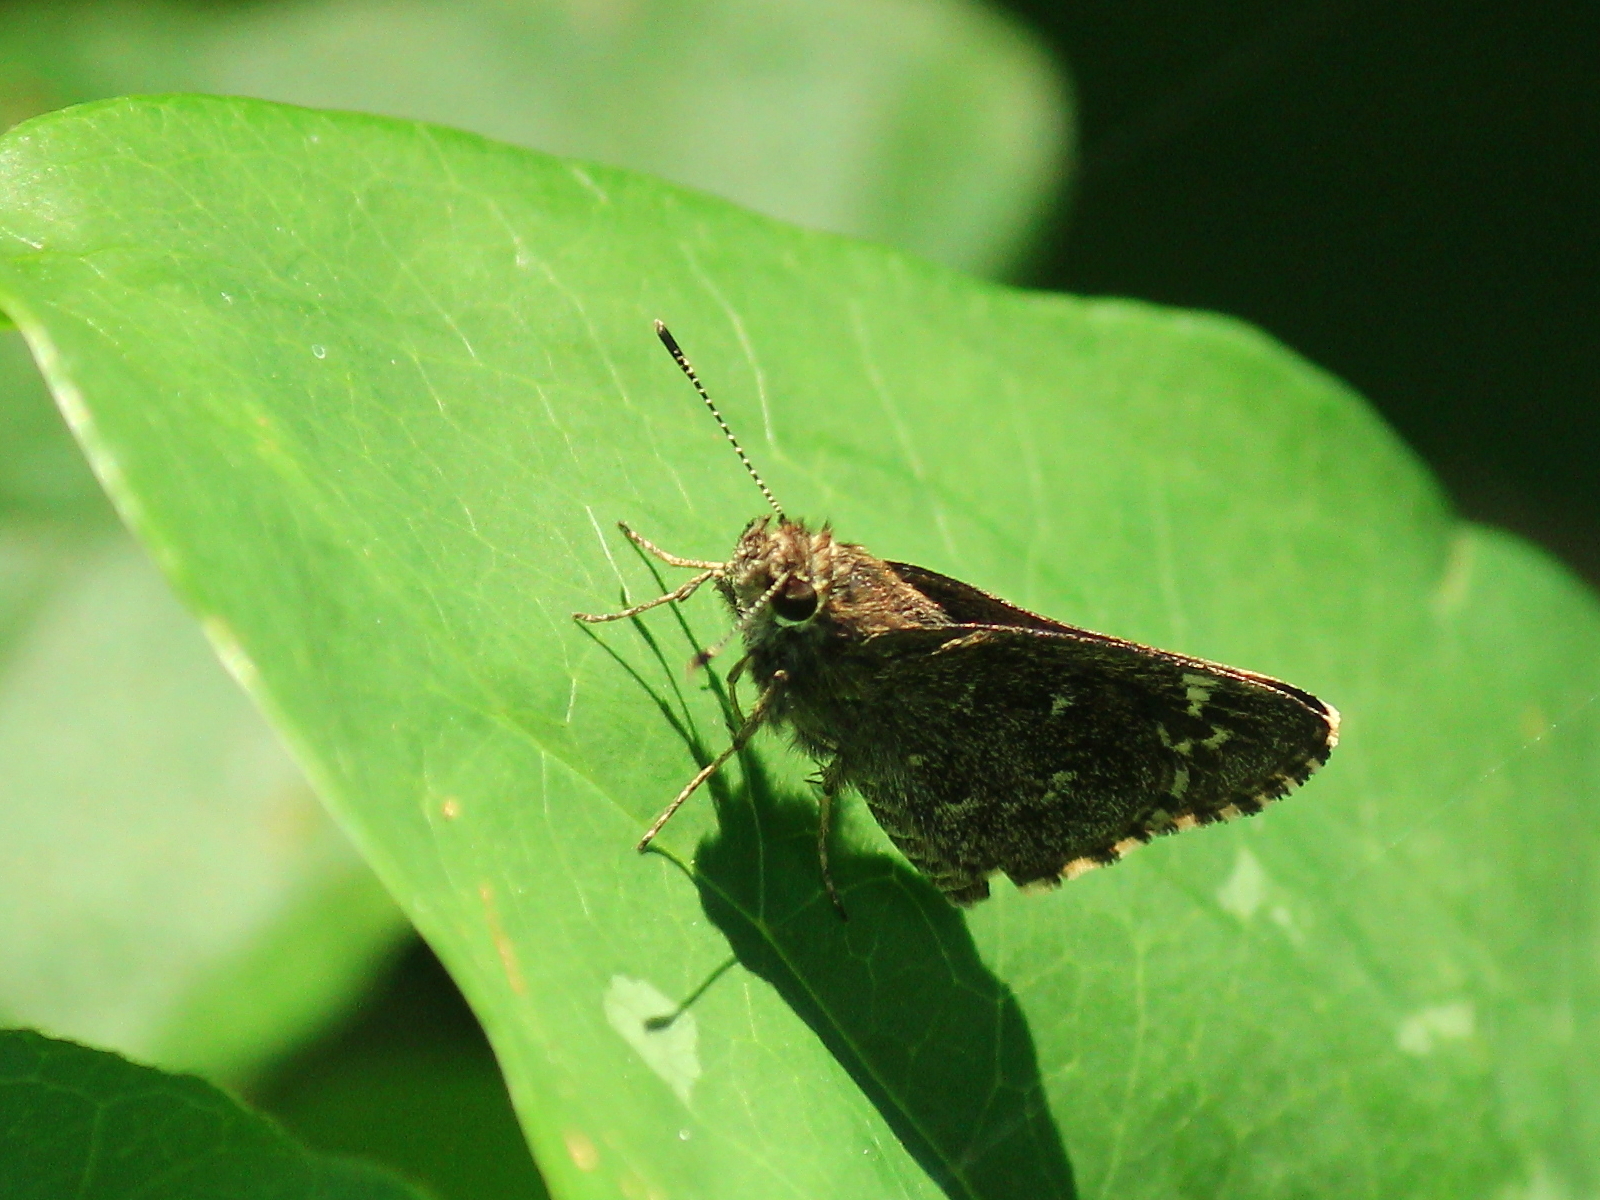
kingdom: Animalia
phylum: Arthropoda
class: Insecta
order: Lepidoptera
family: Hesperiidae
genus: Mastor
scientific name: Mastor celia
